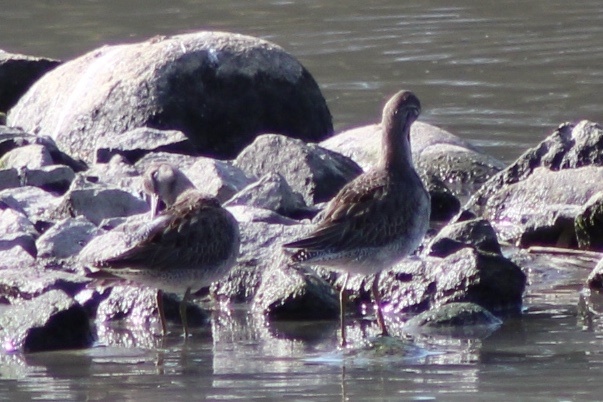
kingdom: Animalia
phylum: Chordata
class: Aves
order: Charadriiformes
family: Scolopacidae
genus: Limnodromus
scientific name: Limnodromus scolopaceus
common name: Long-billed dowitcher
